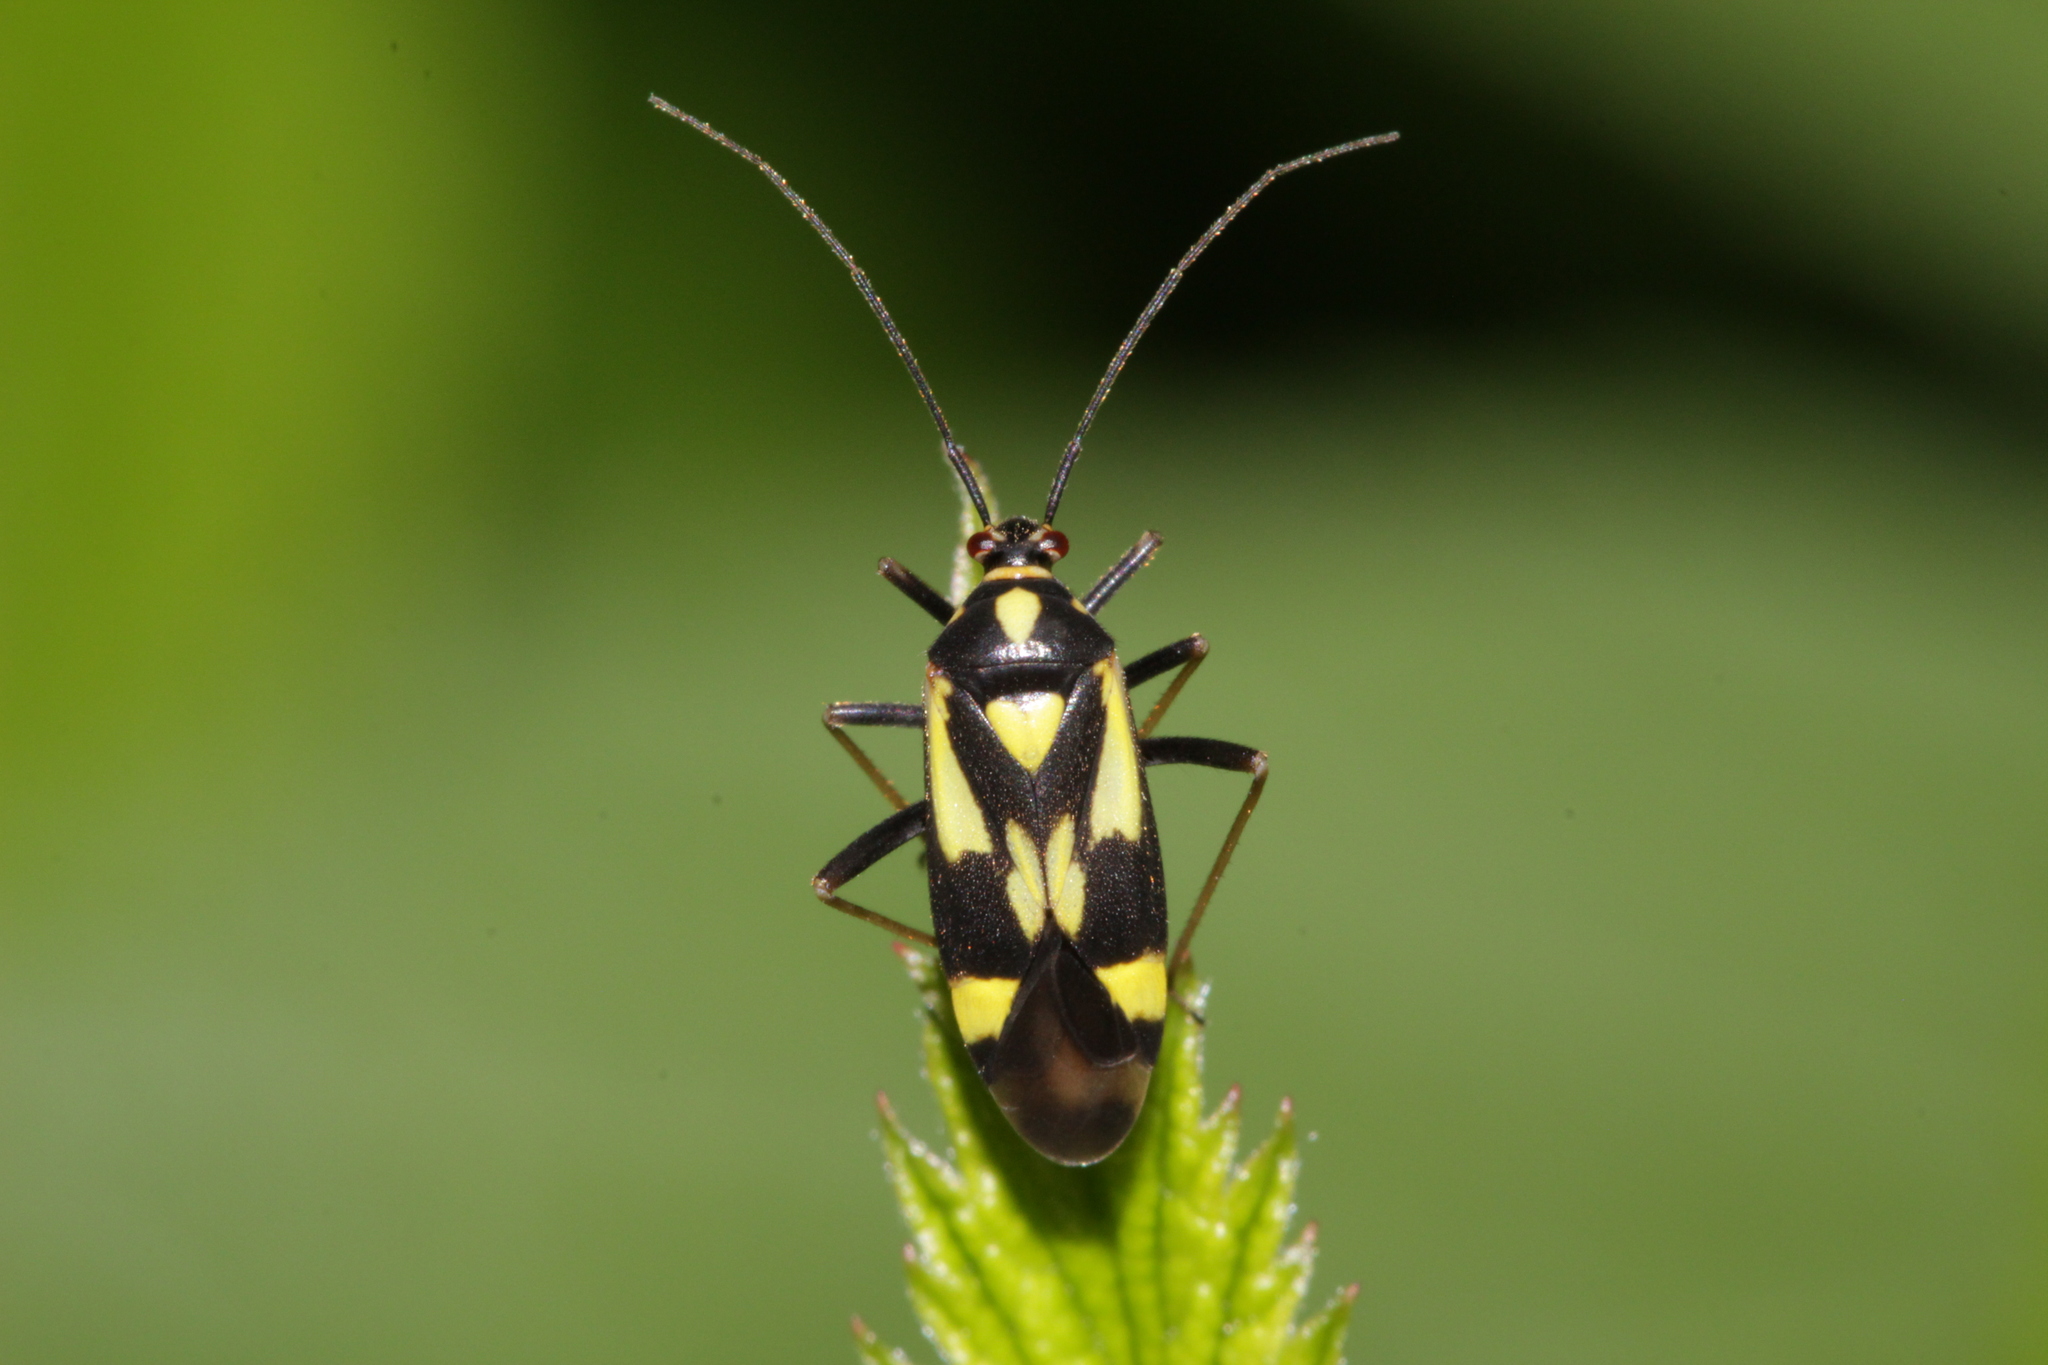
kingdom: Animalia
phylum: Arthropoda
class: Insecta
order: Hemiptera
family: Miridae
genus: Grypocoris
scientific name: Grypocoris sexguttatus
